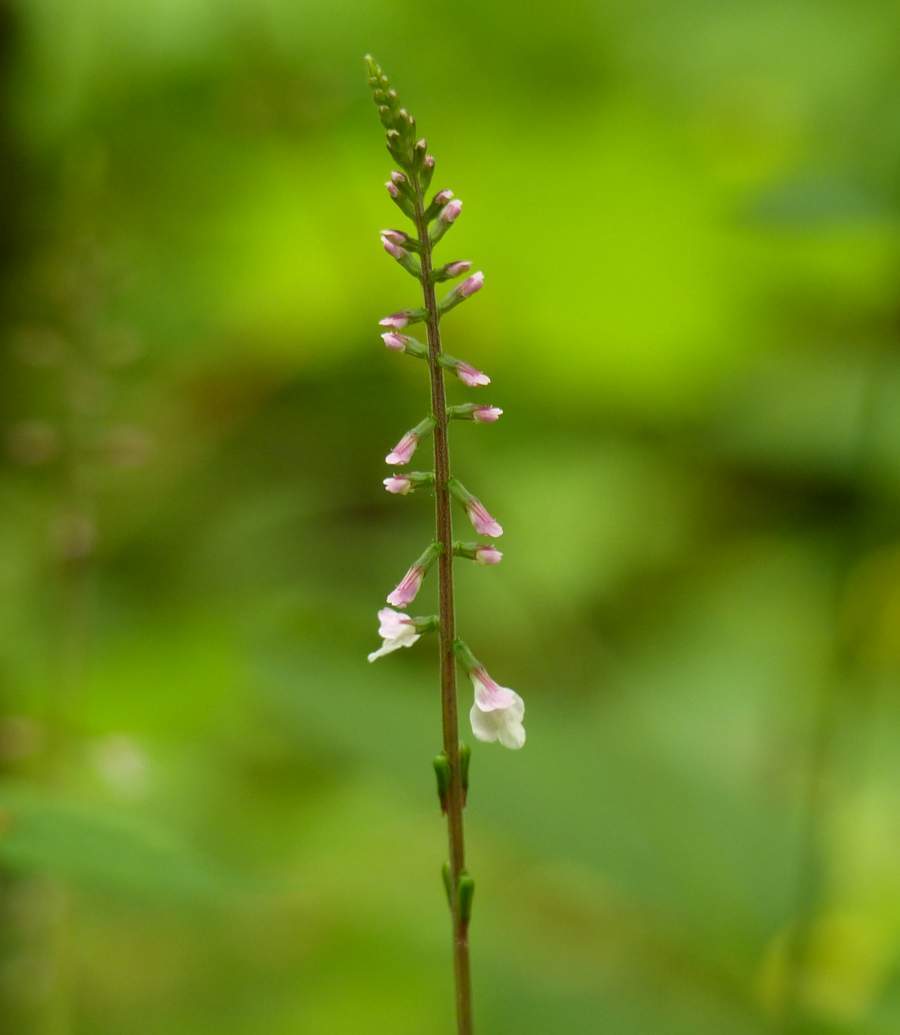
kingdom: Plantae
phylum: Tracheophyta
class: Magnoliopsida
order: Lamiales
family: Phrymaceae
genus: Phryma
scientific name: Phryma leptostachya
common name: American lopseed
